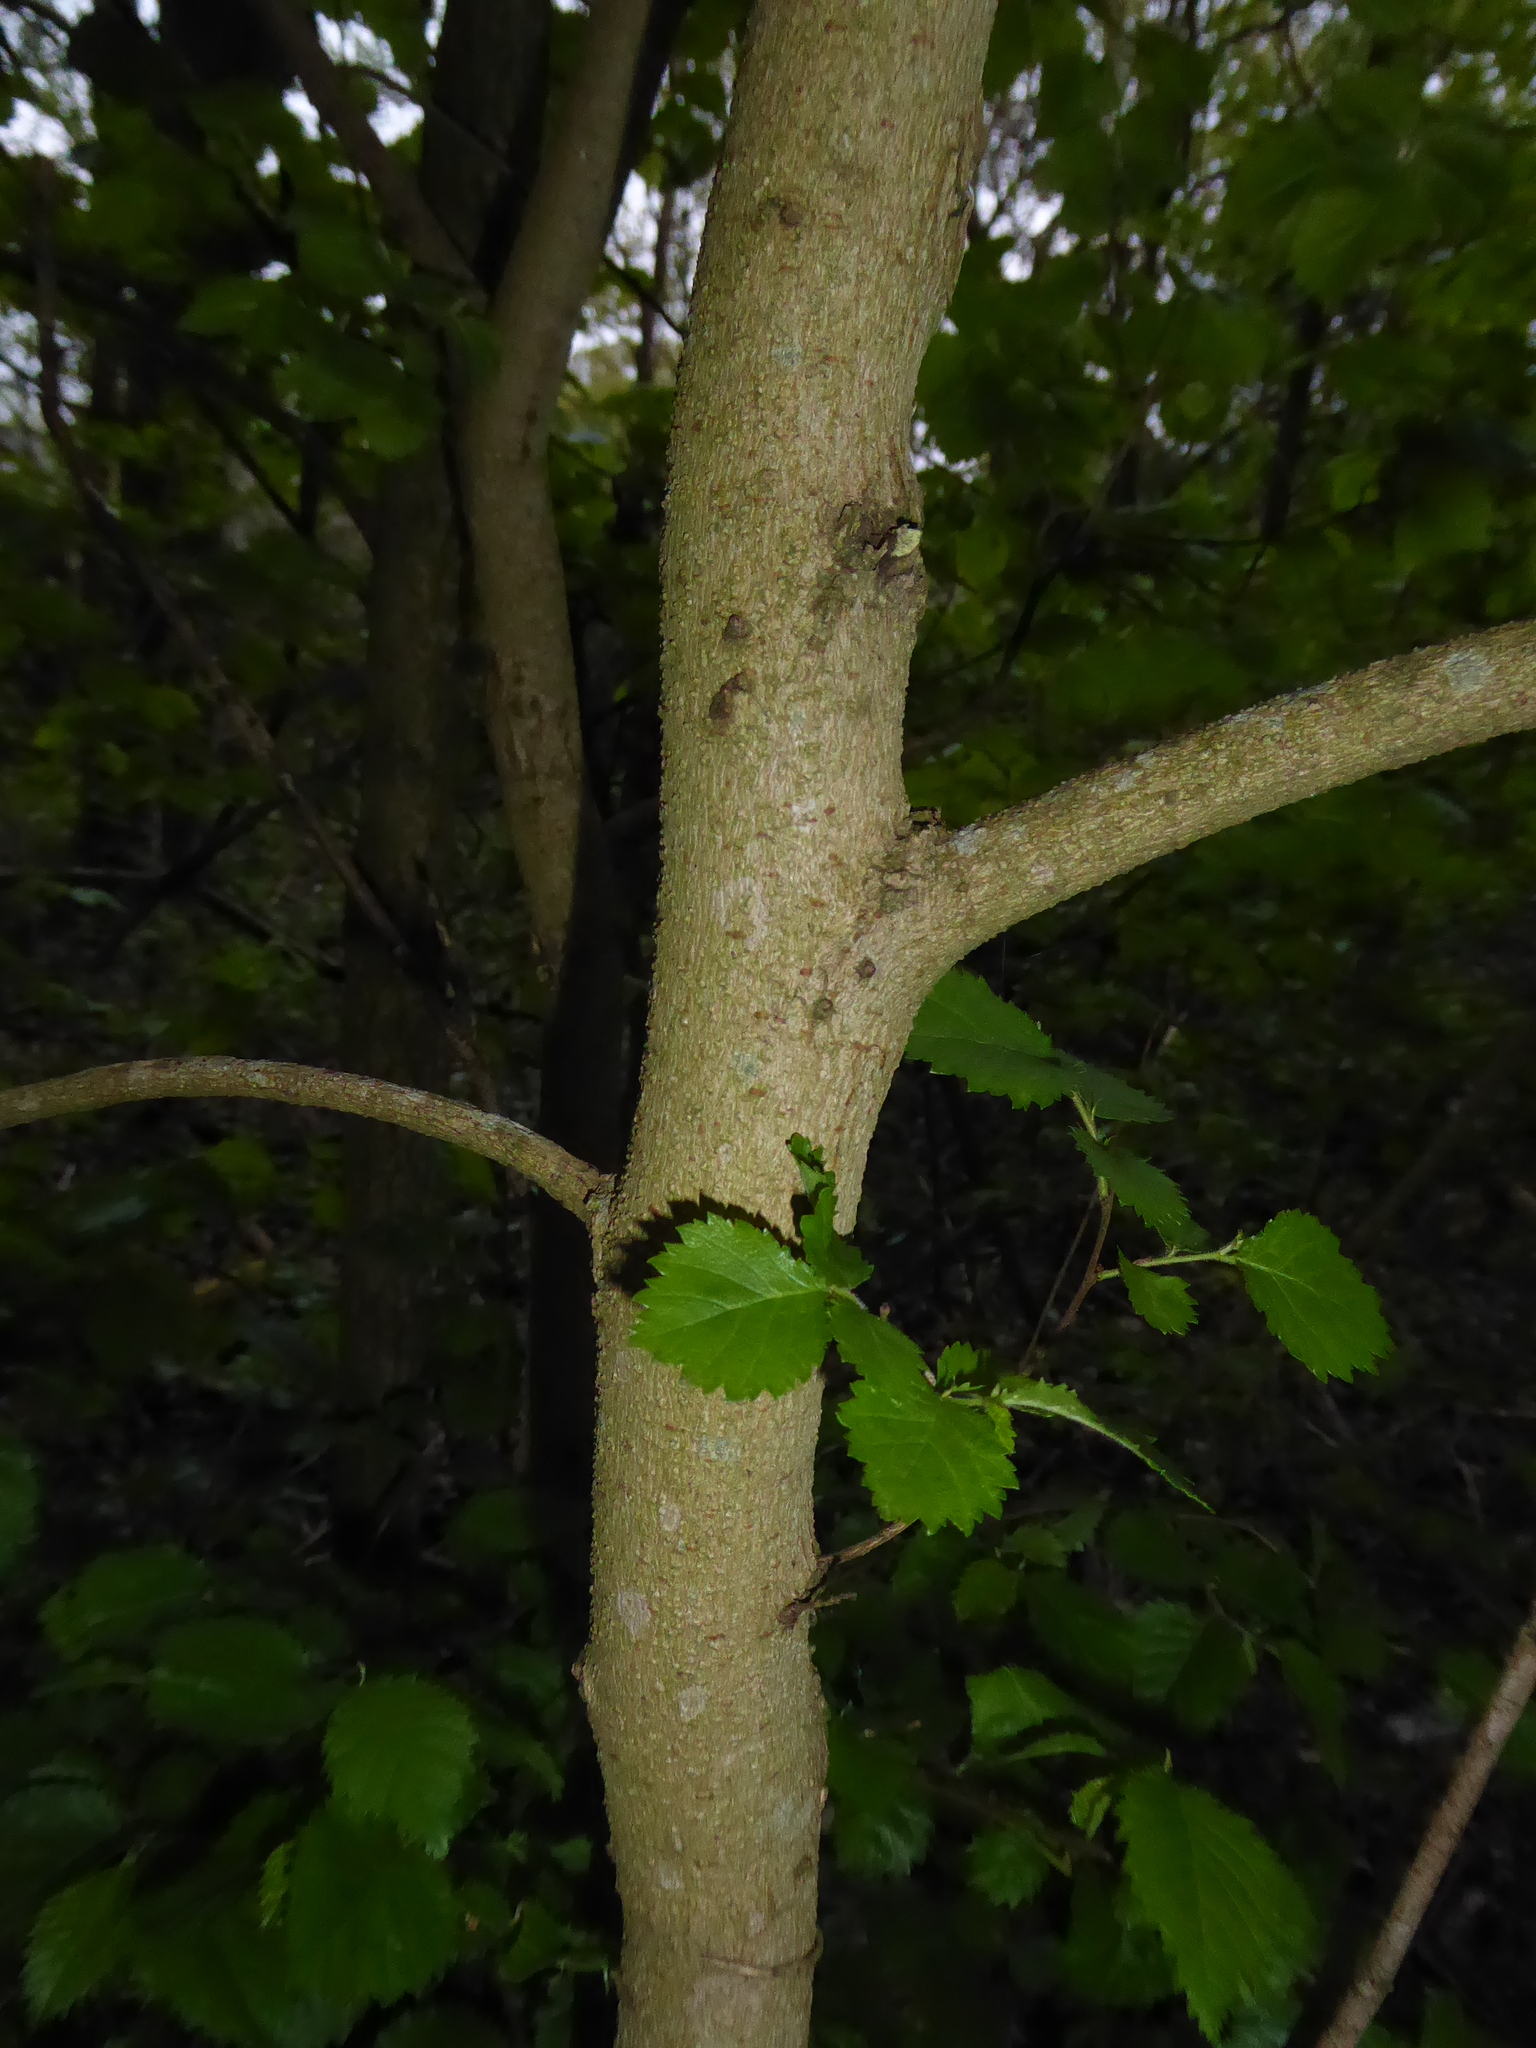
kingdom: Plantae
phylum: Tracheophyta
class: Magnoliopsida
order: Rosales
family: Ulmaceae
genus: Ulmus
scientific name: Ulmus
